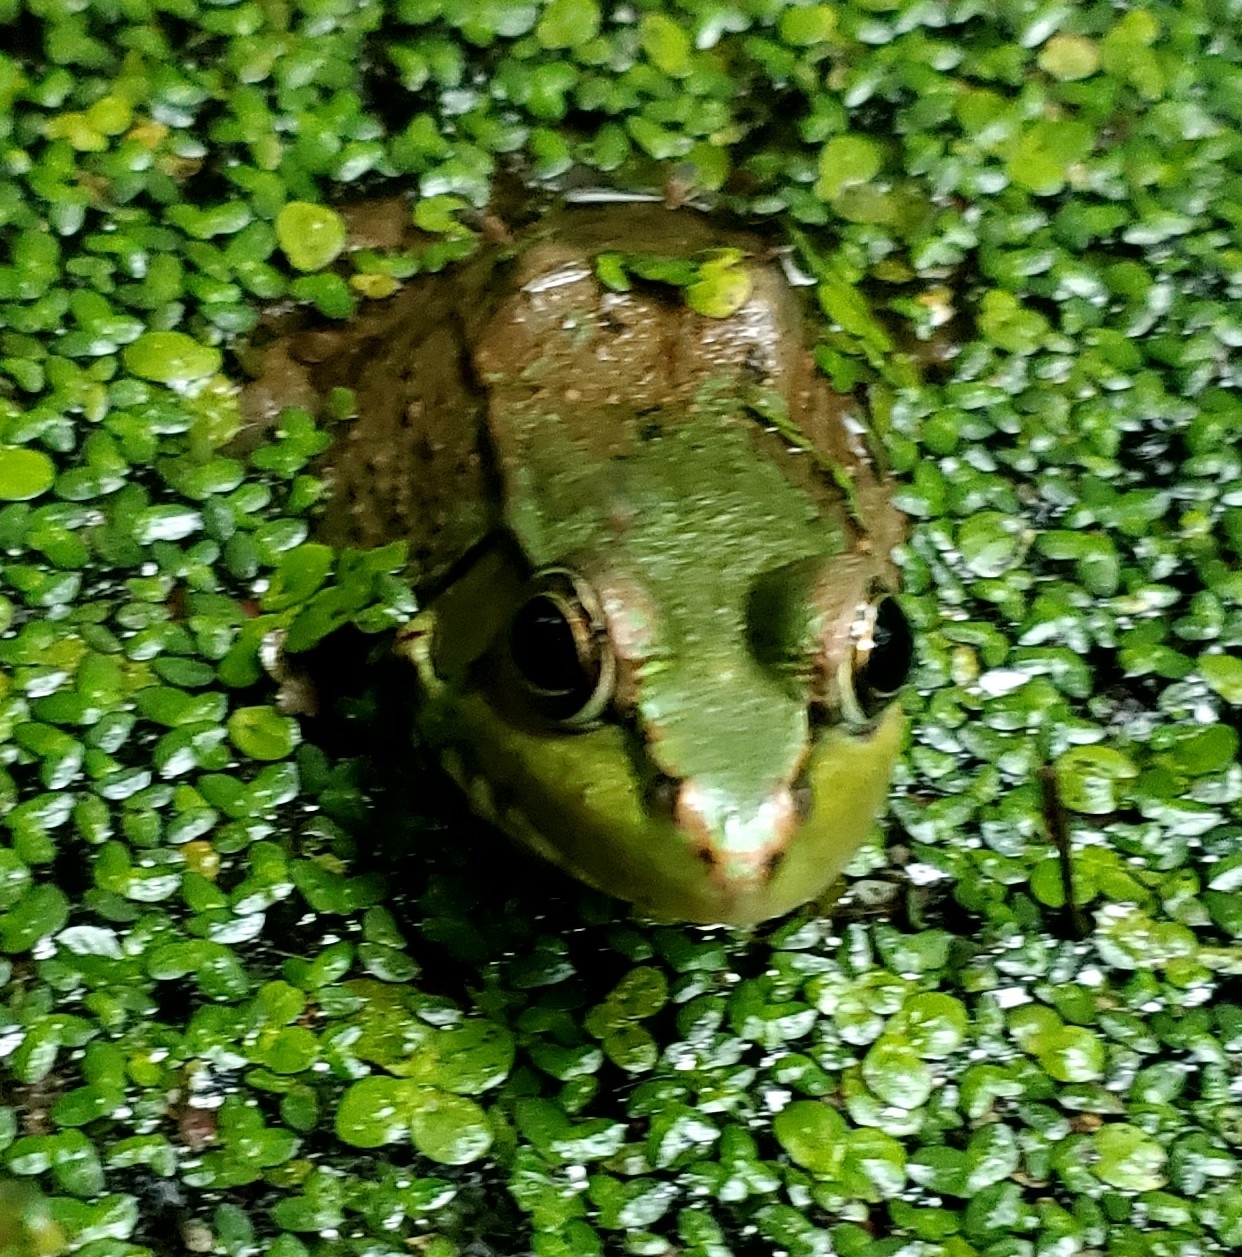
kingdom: Animalia
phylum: Chordata
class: Amphibia
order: Anura
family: Ranidae
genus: Lithobates
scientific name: Lithobates clamitans
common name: Green frog
